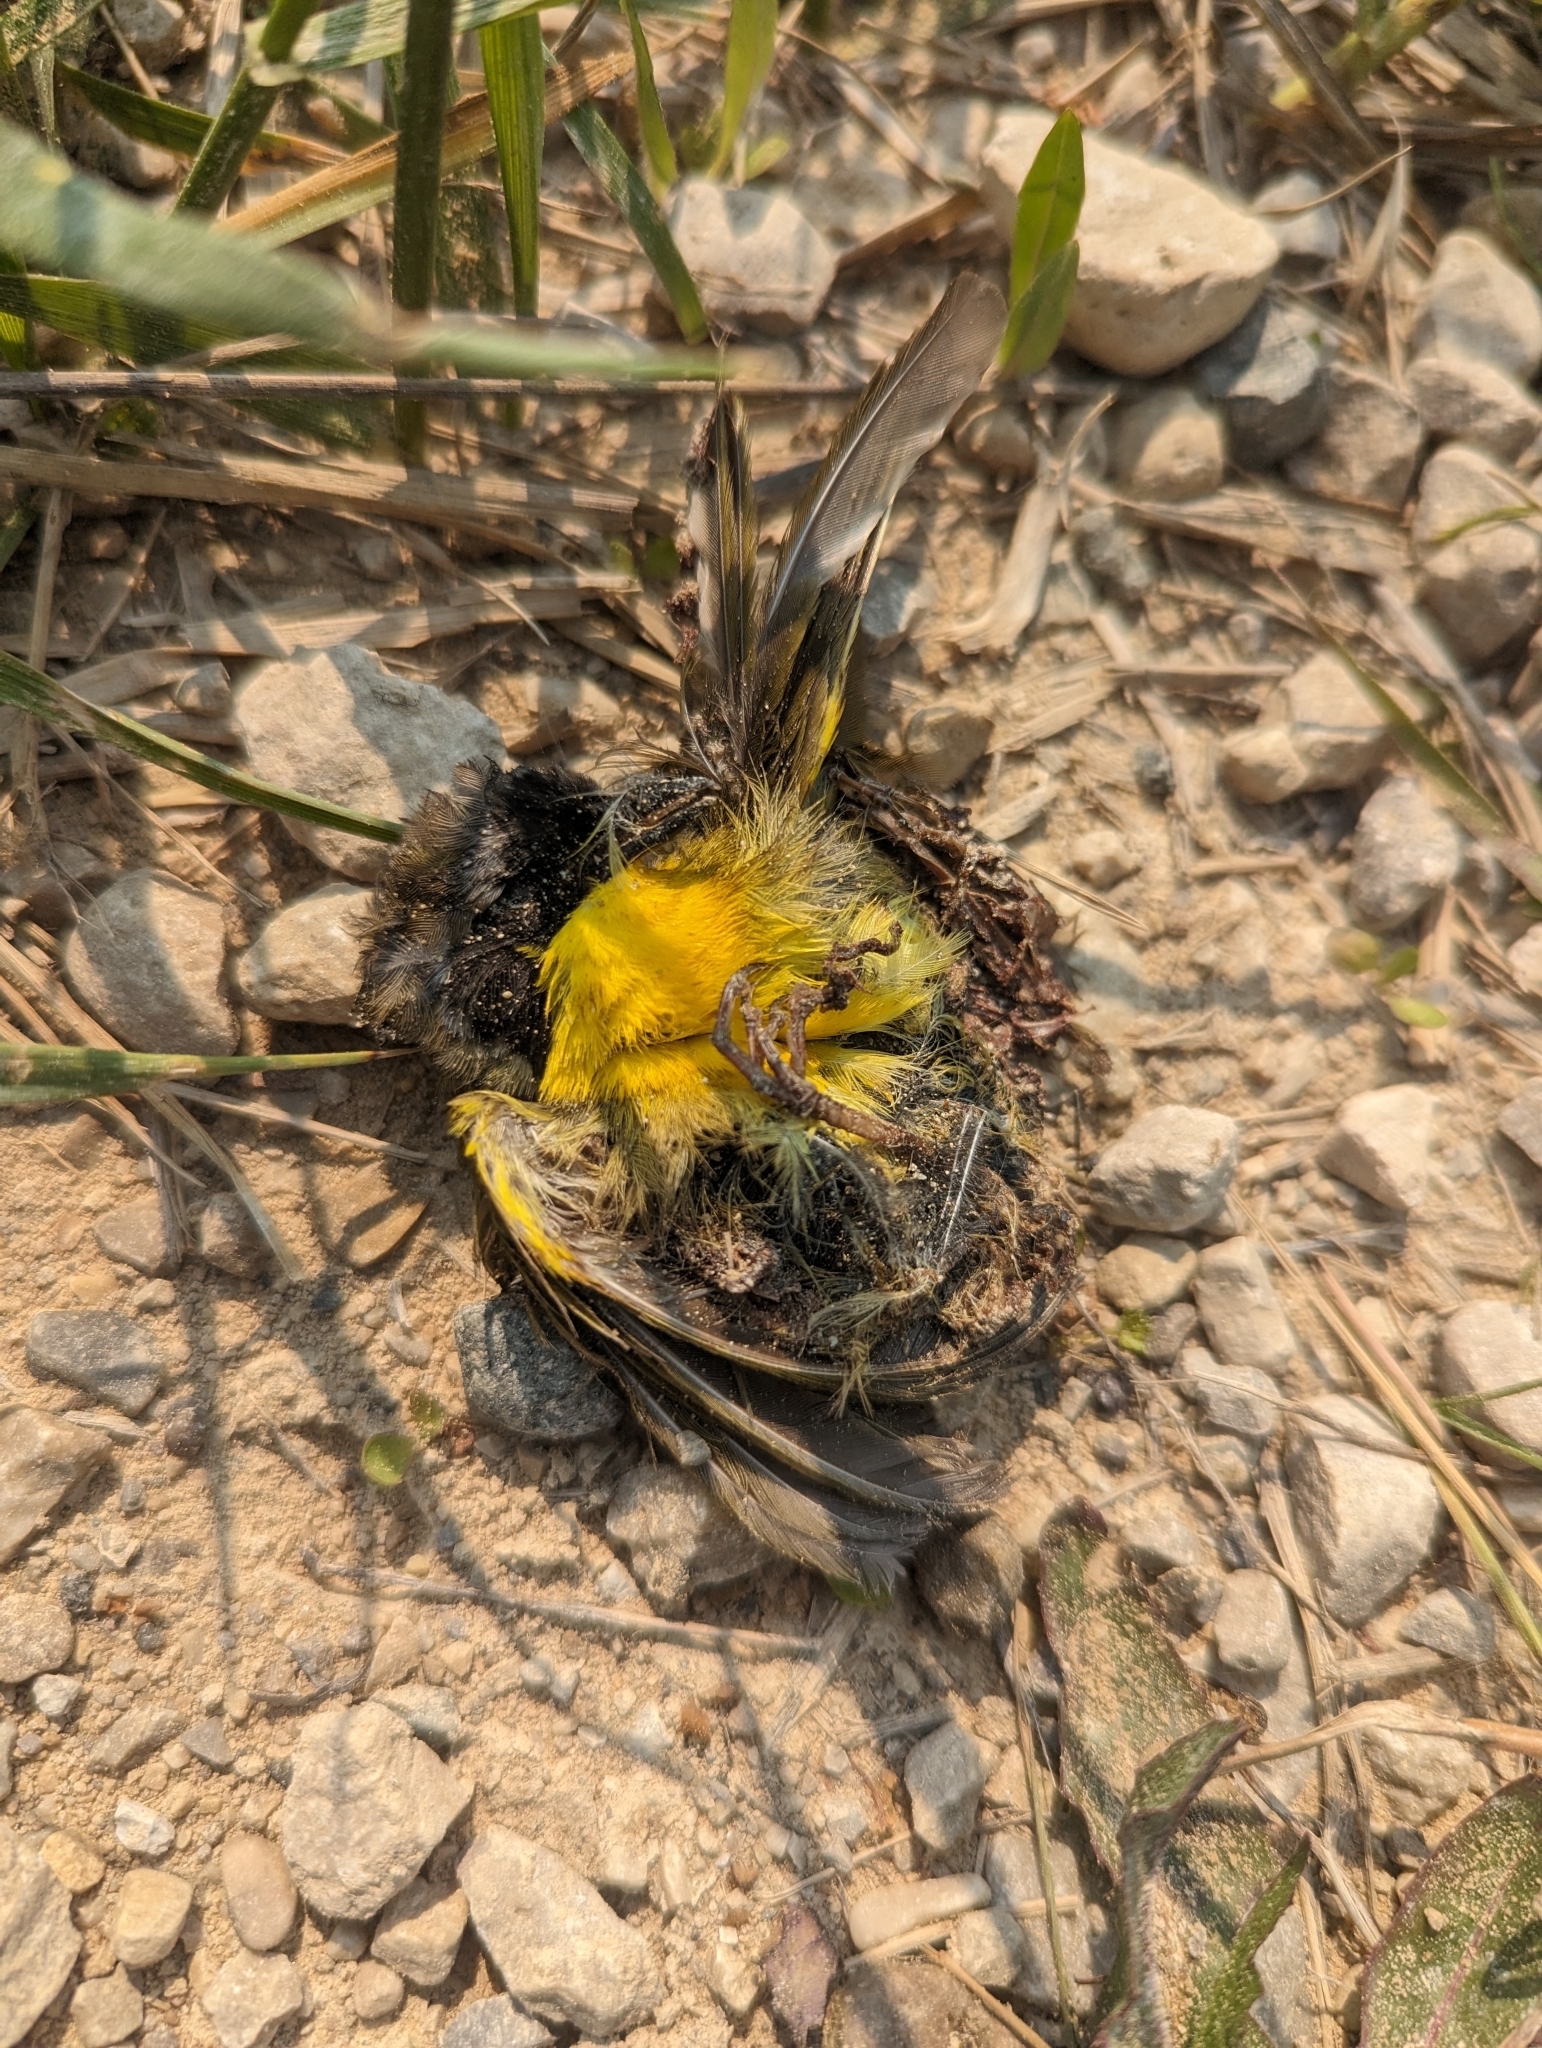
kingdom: Animalia
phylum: Chordata
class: Aves
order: Passeriformes
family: Parulidae
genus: Geothlypis
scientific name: Geothlypis trichas
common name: Common yellowthroat
